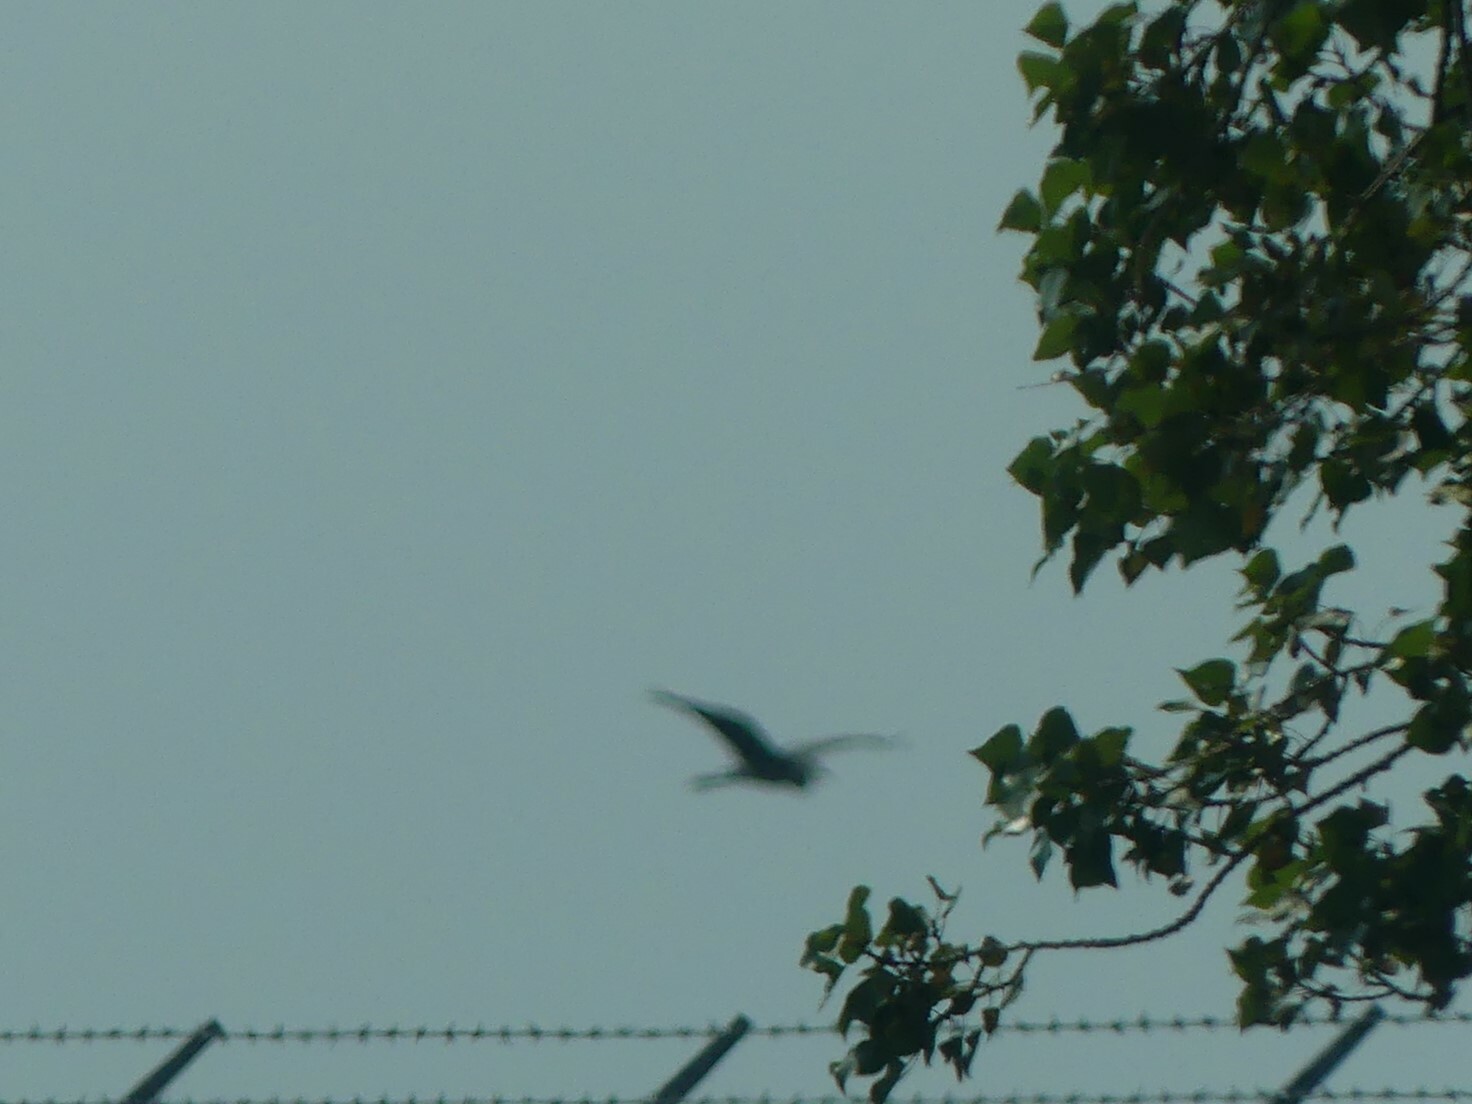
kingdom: Animalia
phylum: Chordata
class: Aves
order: Pelecaniformes
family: Ardeidae
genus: Ardea
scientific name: Ardea herodias
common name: Great blue heron
